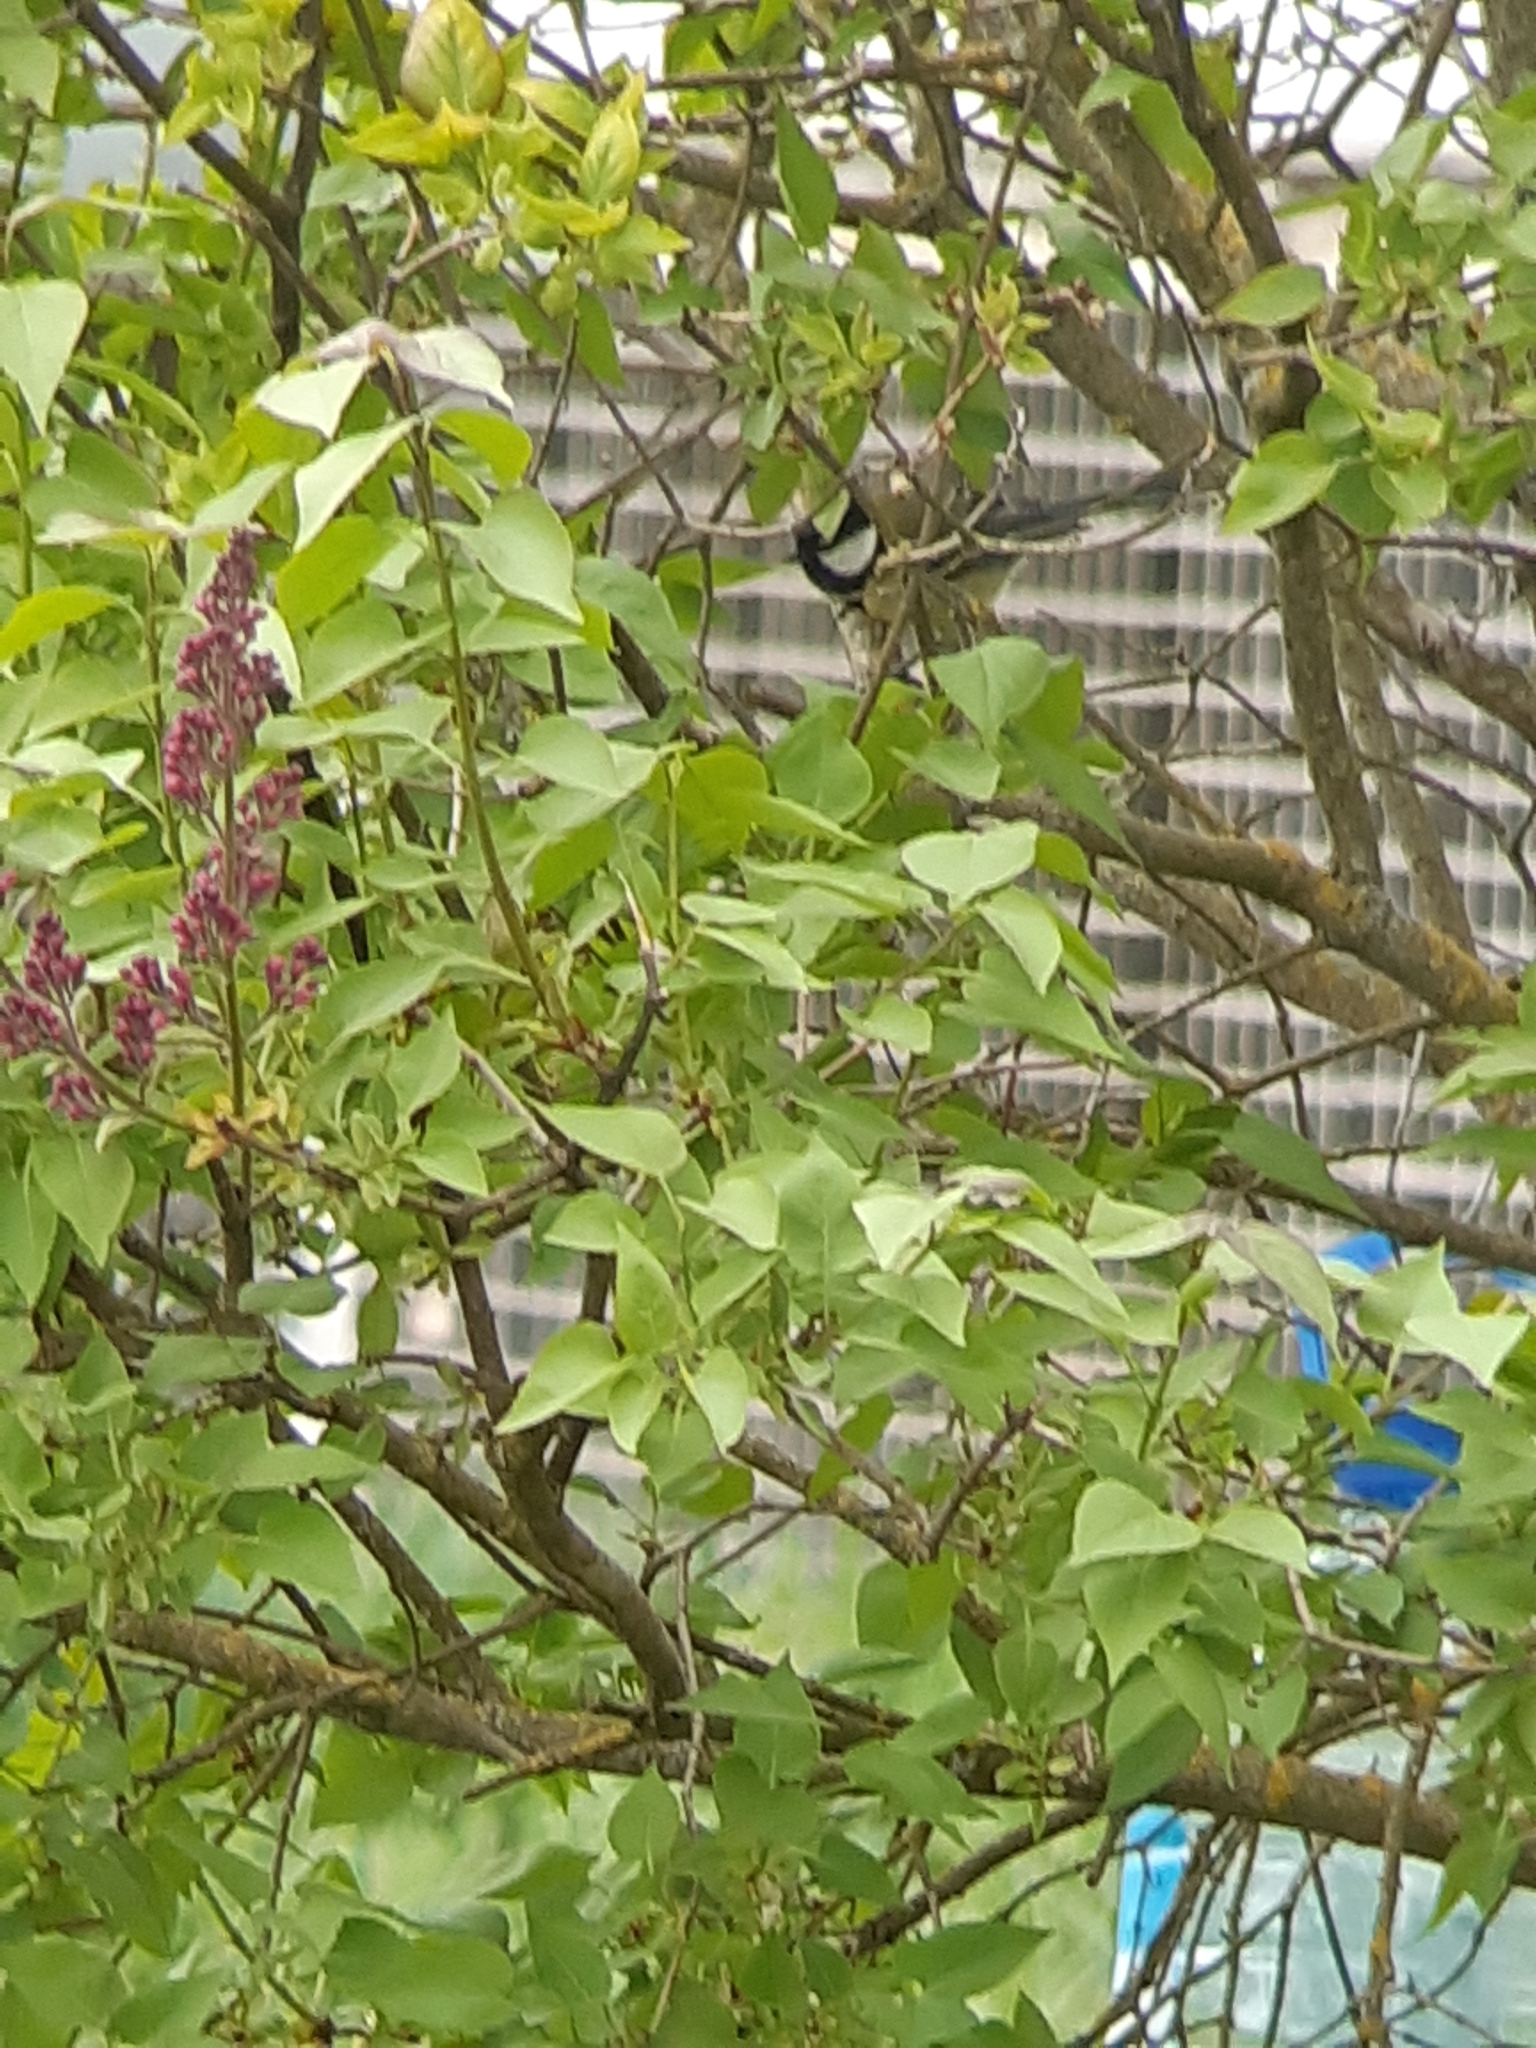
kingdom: Animalia
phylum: Chordata
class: Aves
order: Passeriformes
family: Paridae
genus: Parus
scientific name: Parus major
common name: Great tit
